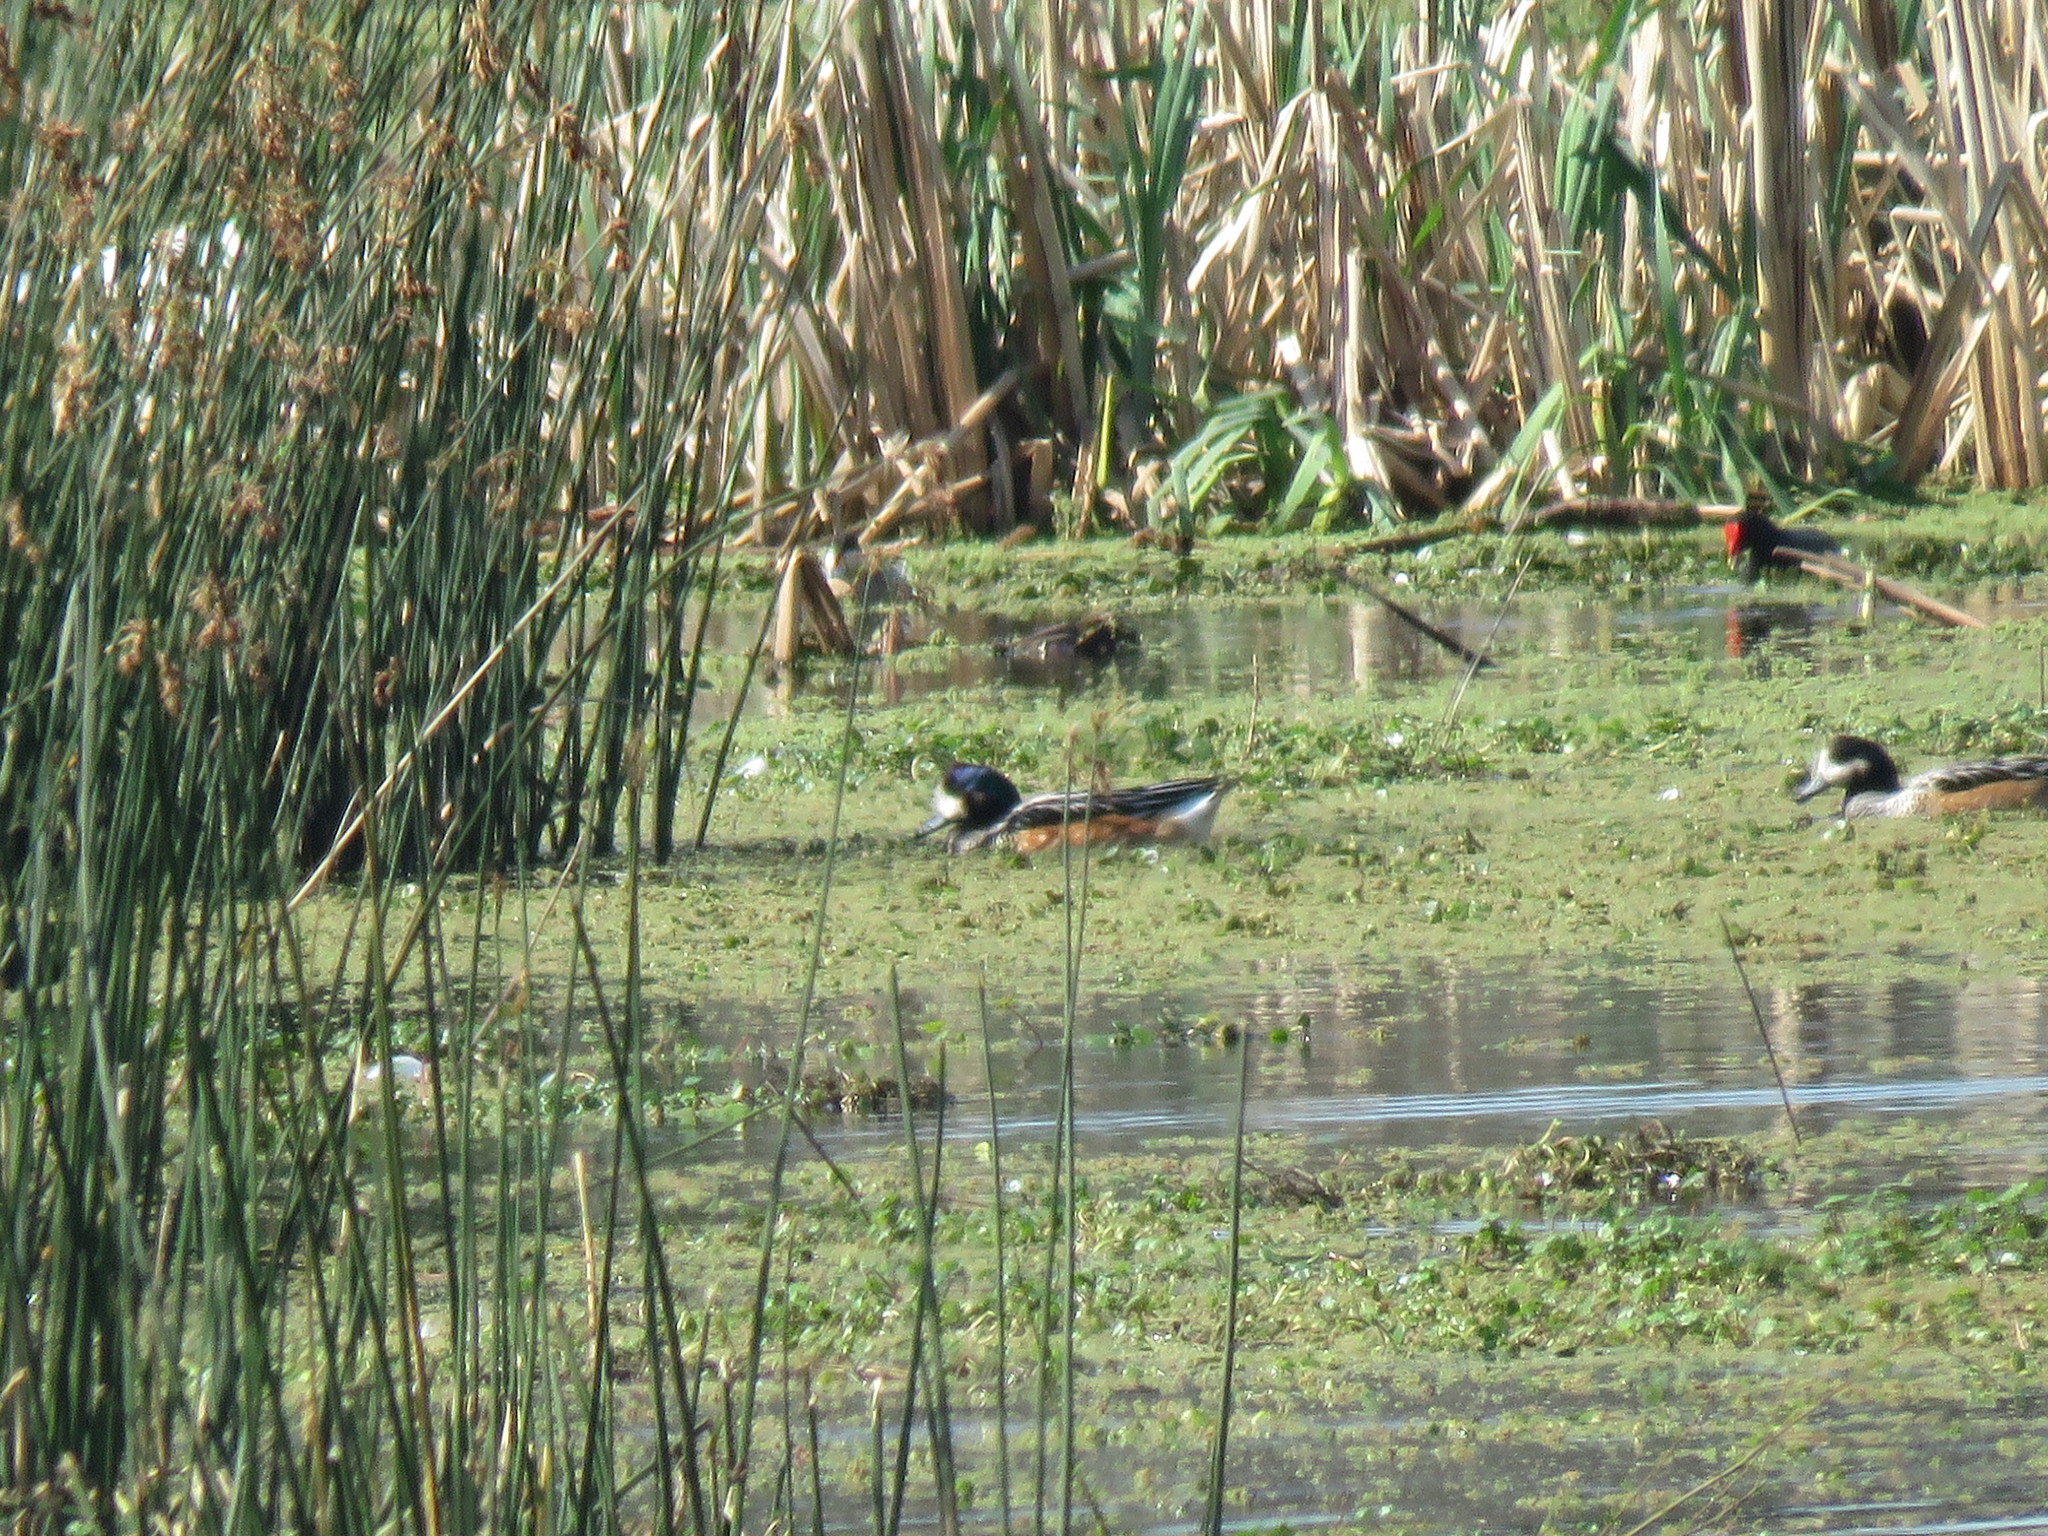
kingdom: Animalia
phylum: Chordata
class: Aves
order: Anseriformes
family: Anatidae
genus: Mareca
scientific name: Mareca sibilatrix
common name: Chiloe wigeon
